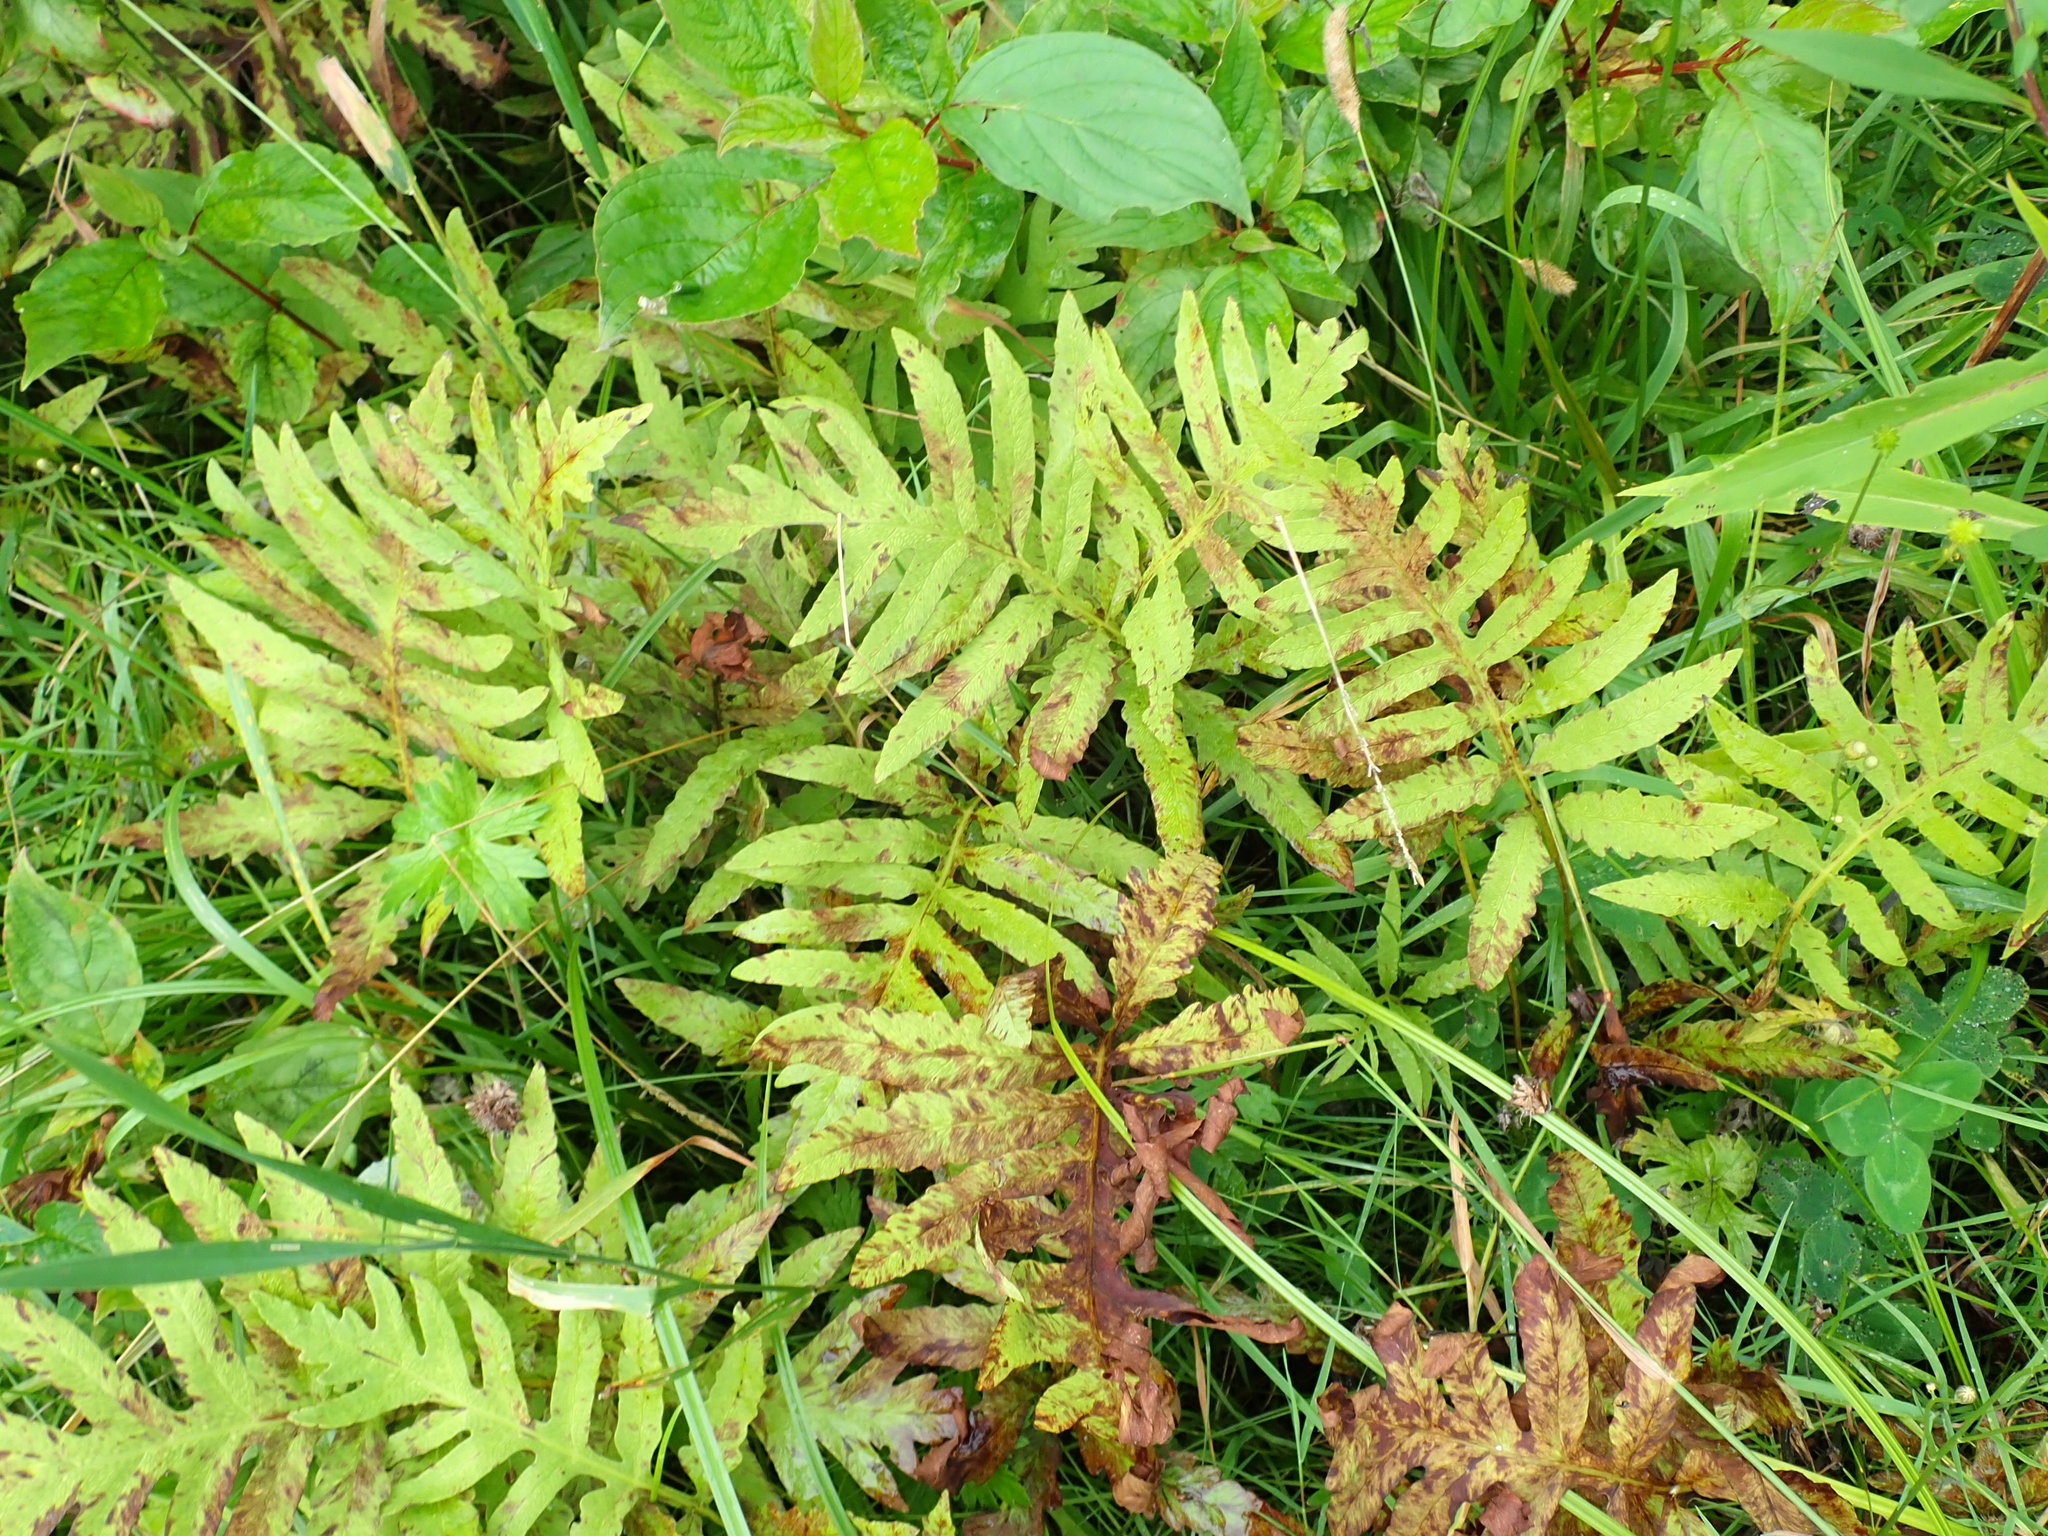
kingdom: Plantae
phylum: Tracheophyta
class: Polypodiopsida
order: Polypodiales
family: Onocleaceae
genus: Onoclea
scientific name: Onoclea sensibilis
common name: Sensitive fern
